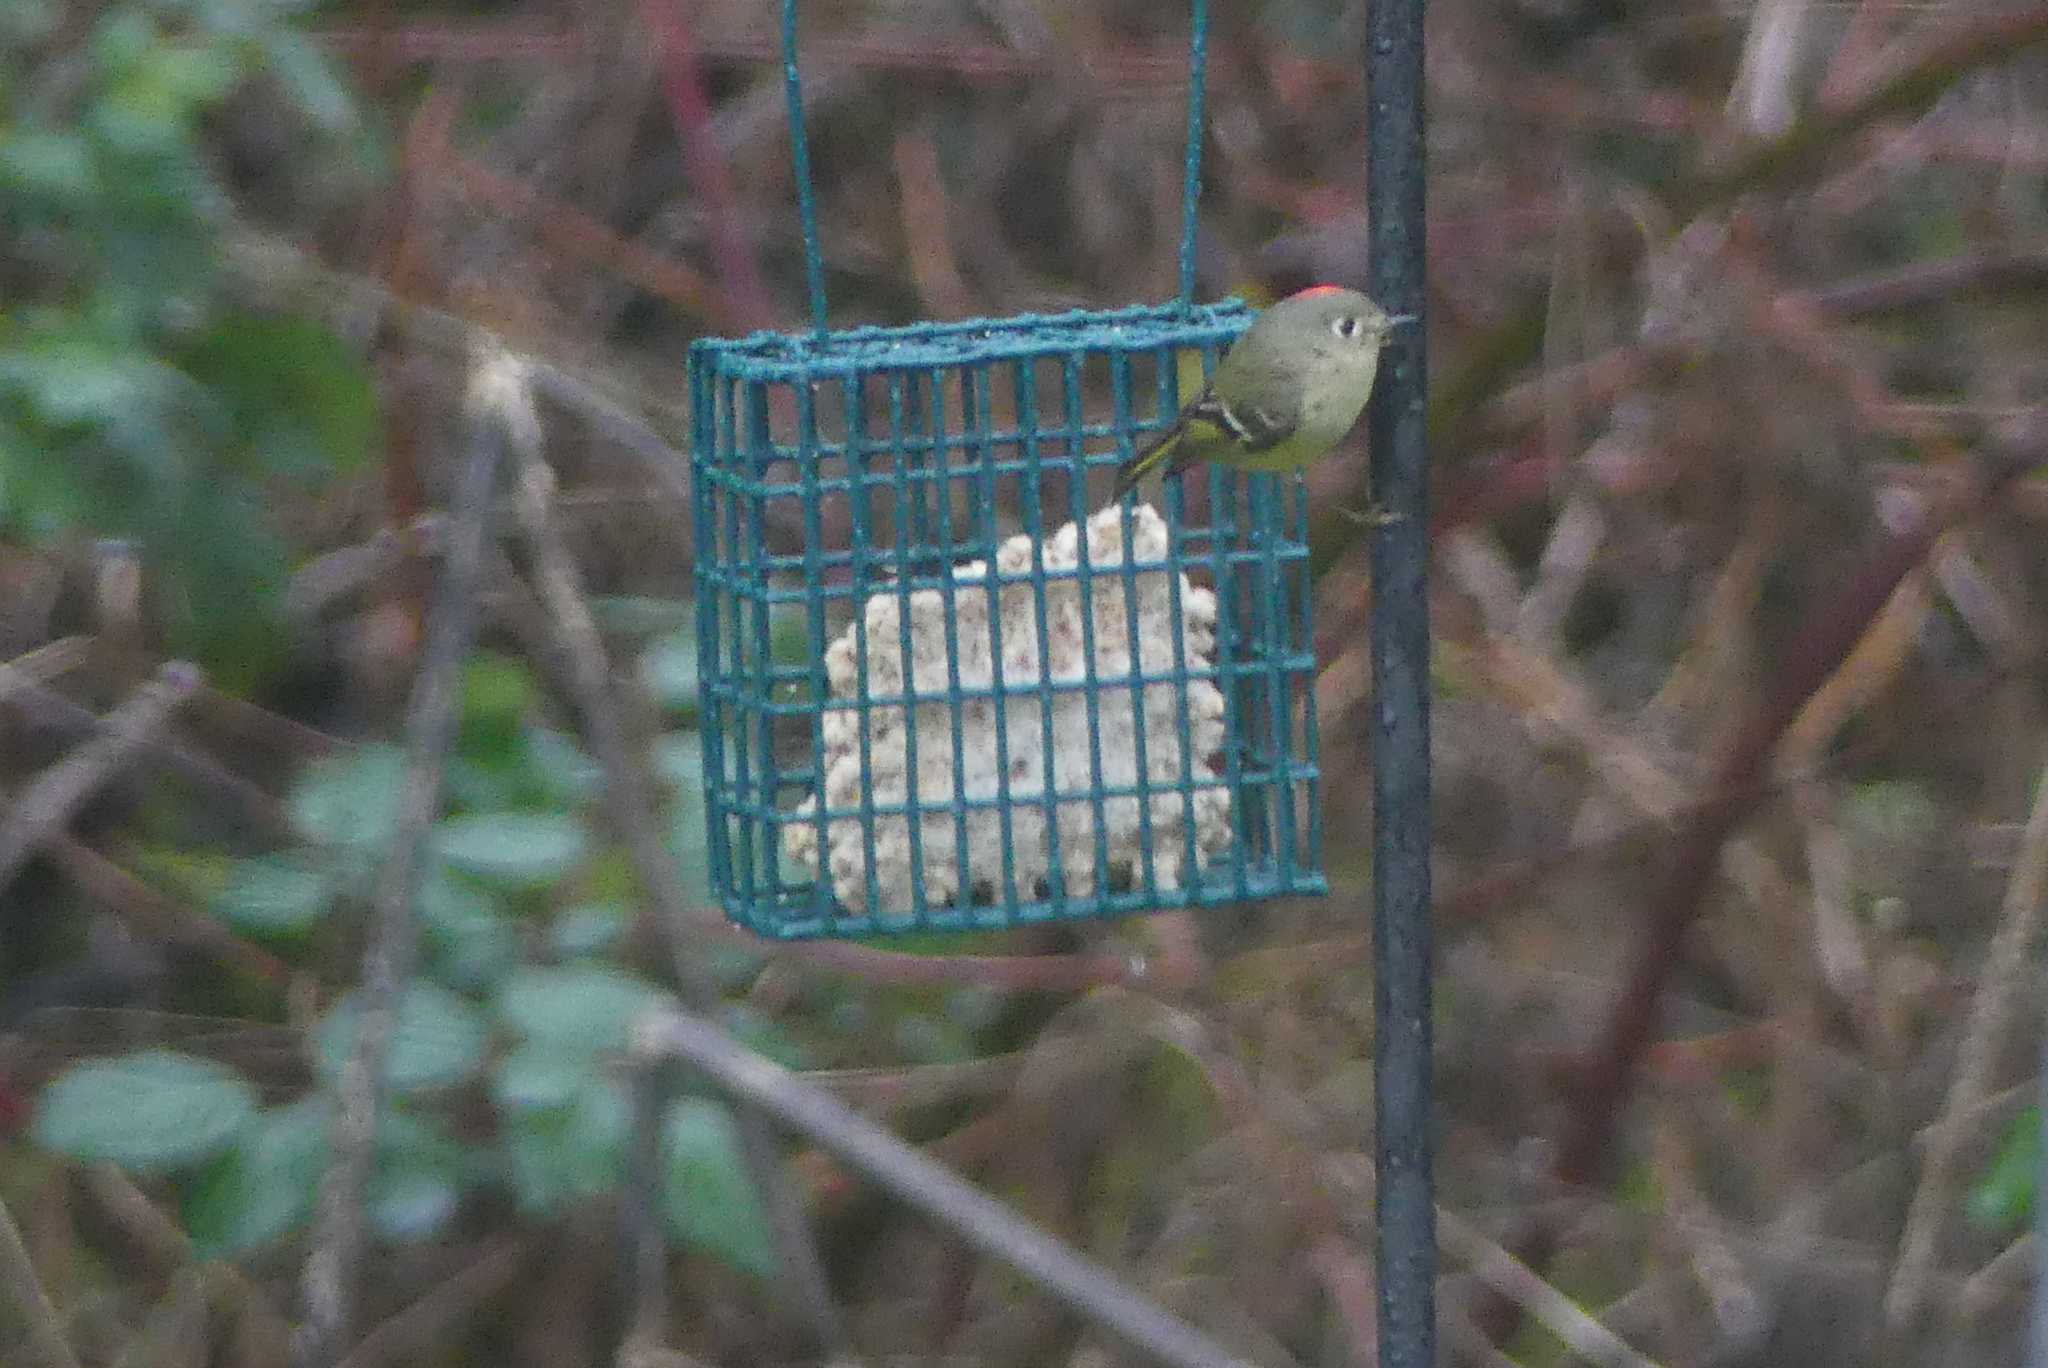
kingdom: Animalia
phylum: Chordata
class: Aves
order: Passeriformes
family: Regulidae
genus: Regulus
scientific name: Regulus calendula
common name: Ruby-crowned kinglet
